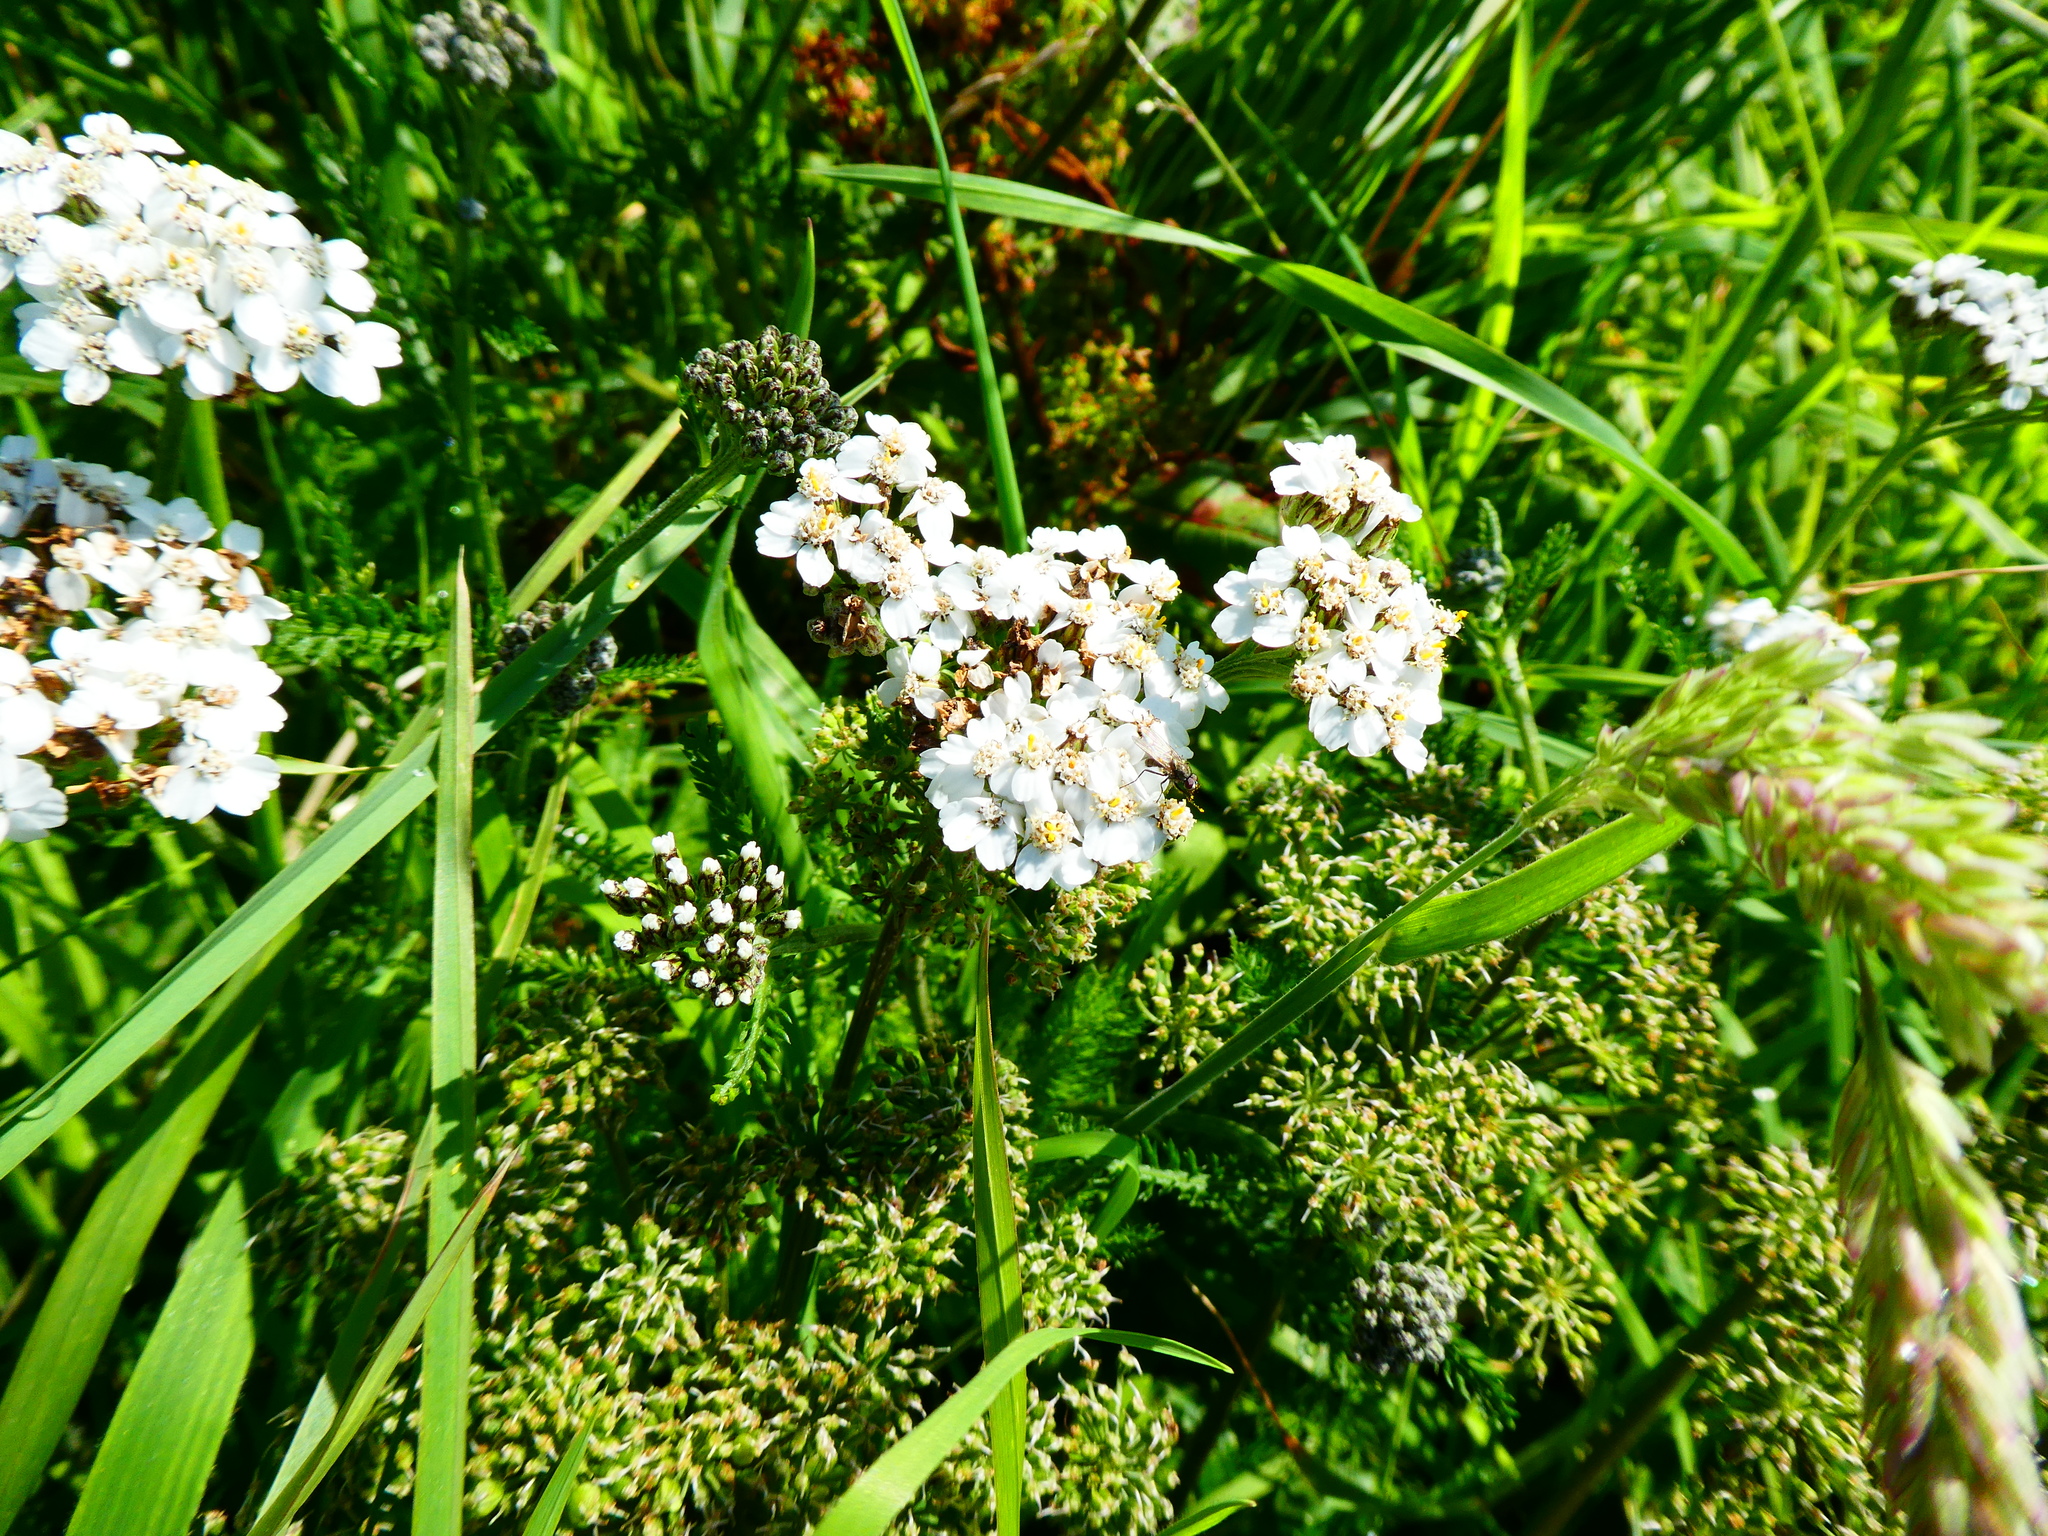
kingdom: Plantae
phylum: Tracheophyta
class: Magnoliopsida
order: Asterales
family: Asteraceae
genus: Achillea
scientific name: Achillea millefolium
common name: Yarrow
